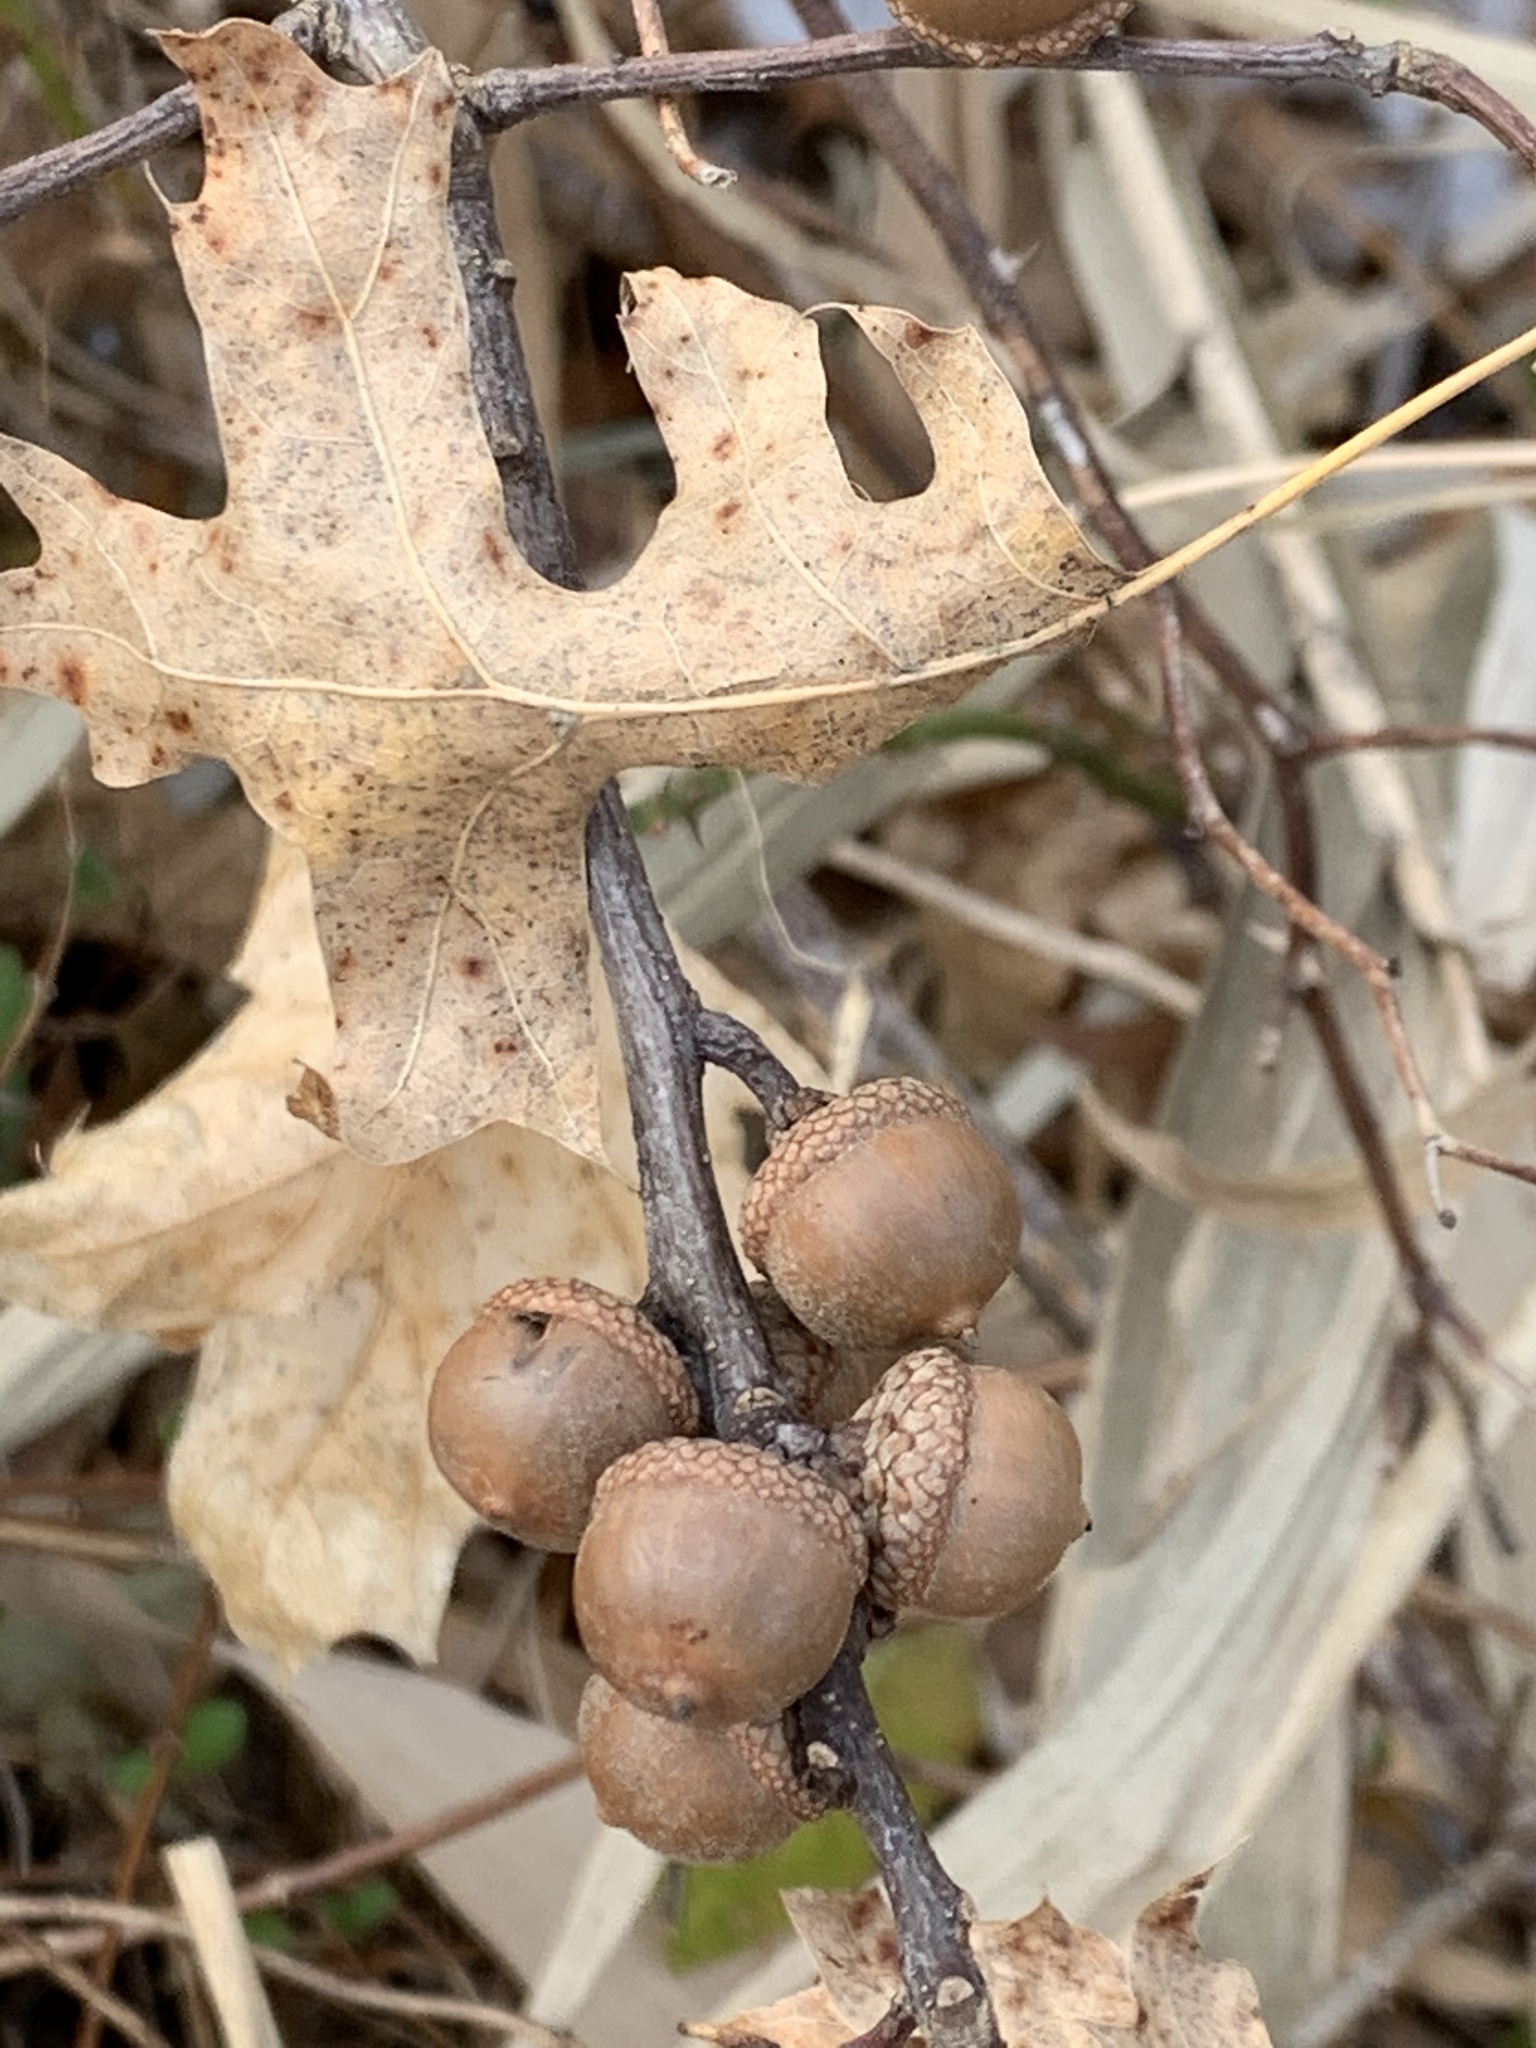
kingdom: Plantae
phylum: Tracheophyta
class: Magnoliopsida
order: Fagales
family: Fagaceae
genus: Quercus
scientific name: Quercus palustris
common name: Pin oak
